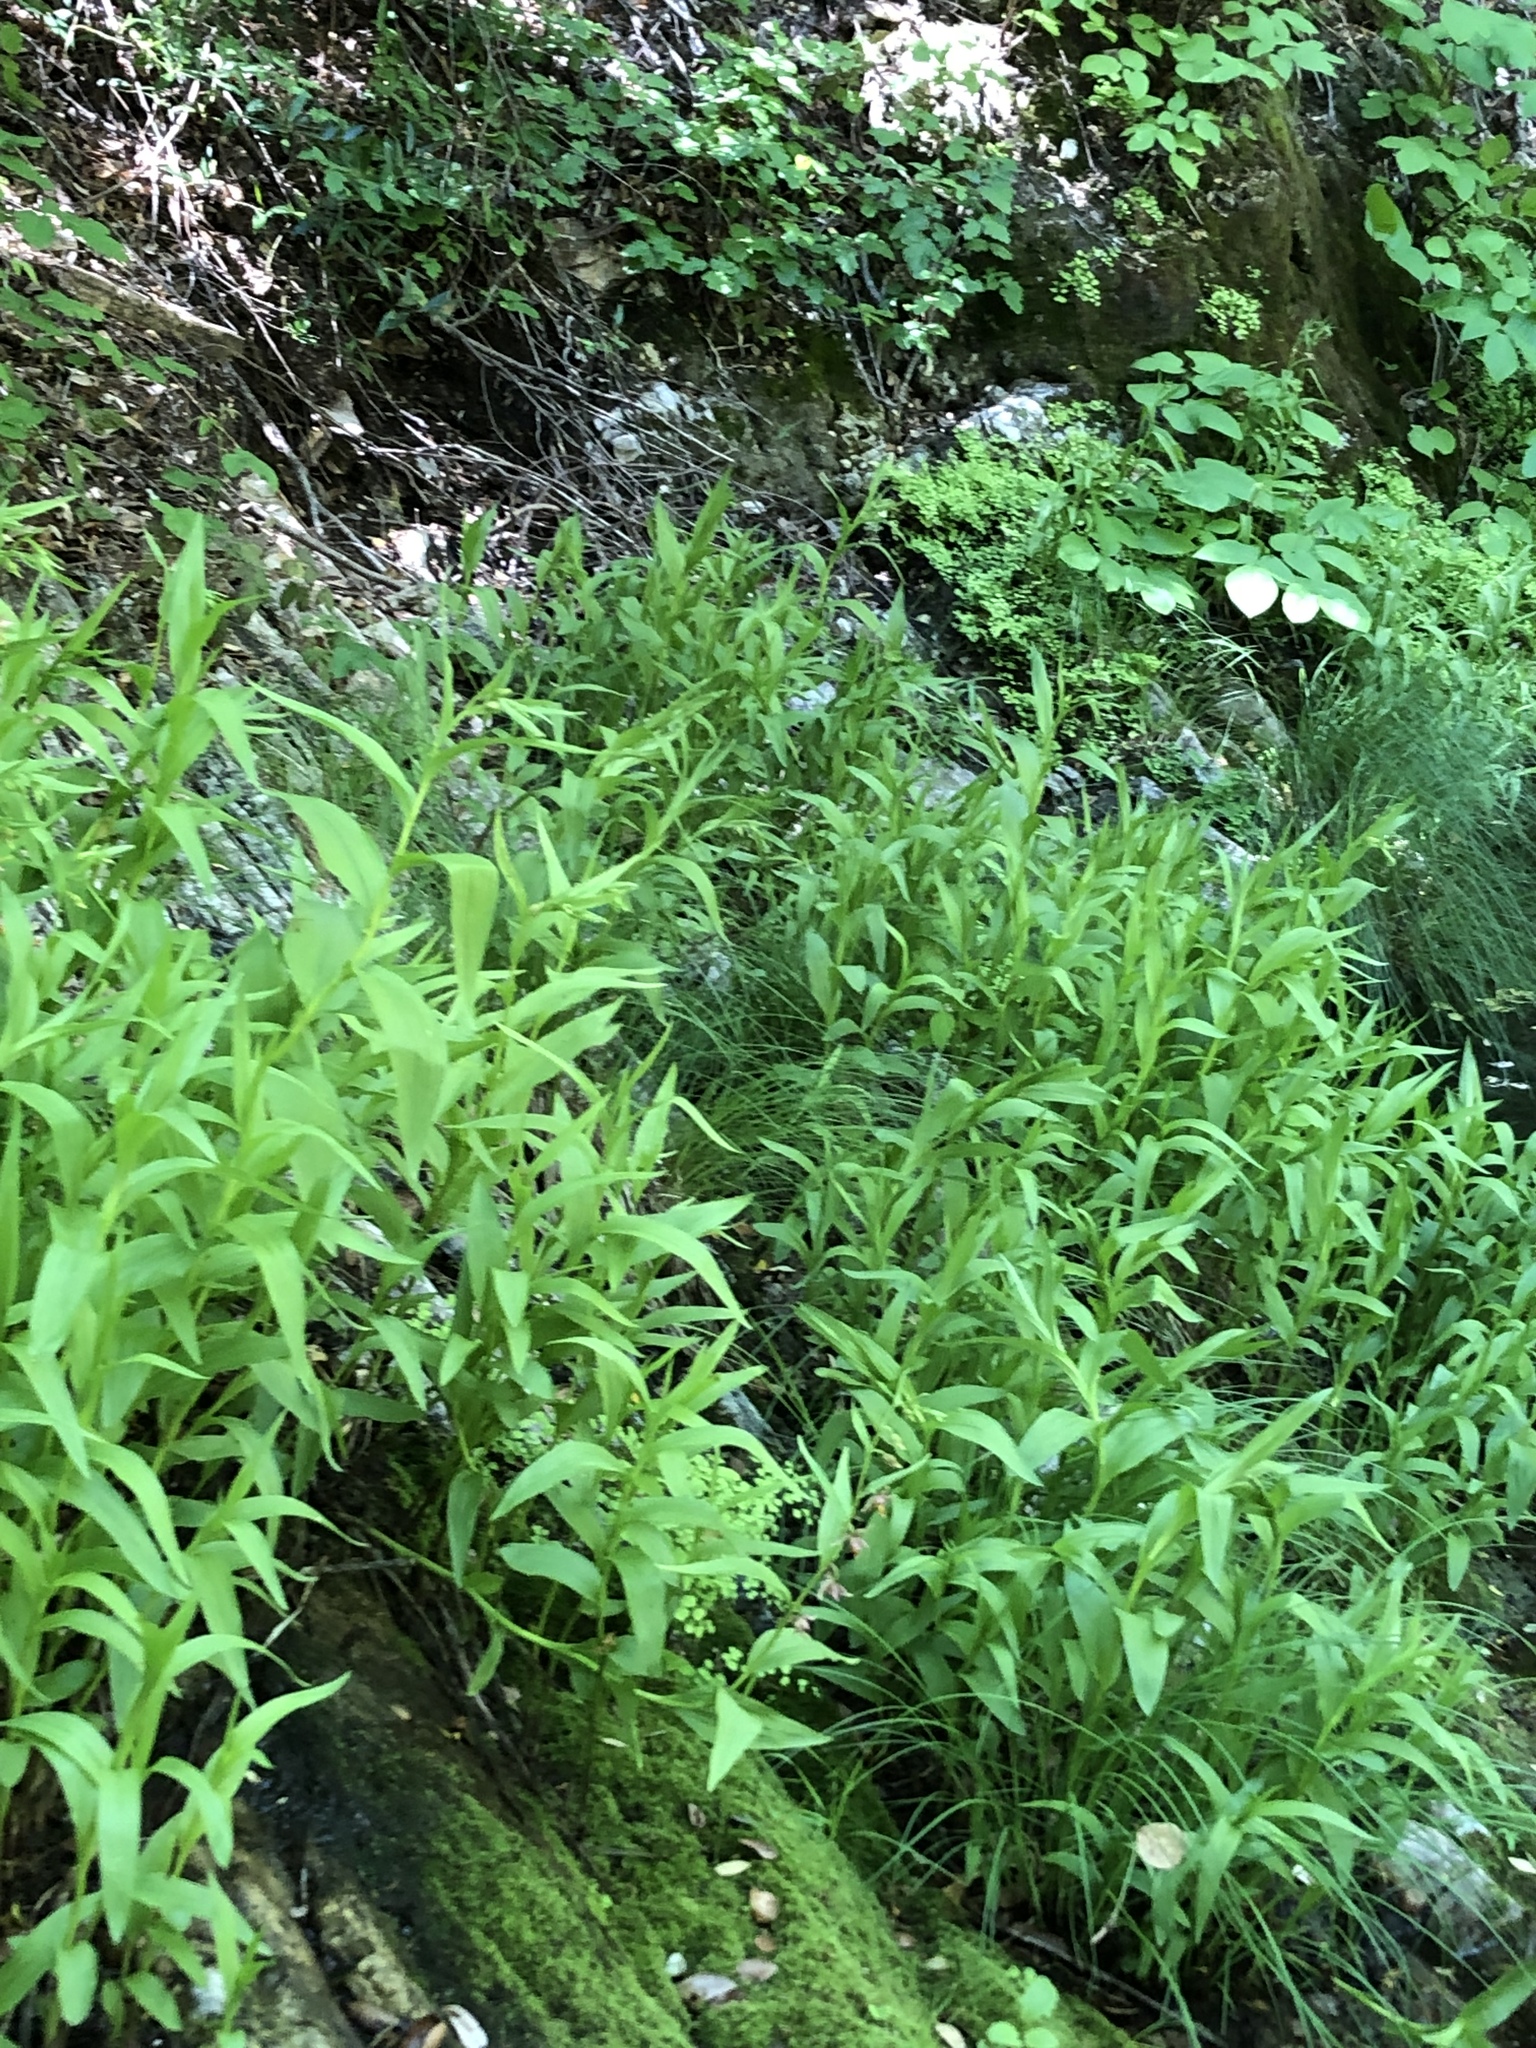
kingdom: Plantae
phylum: Tracheophyta
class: Liliopsida
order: Asparagales
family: Orchidaceae
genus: Epipactis
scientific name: Epipactis gigantea
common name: Chatterbox
